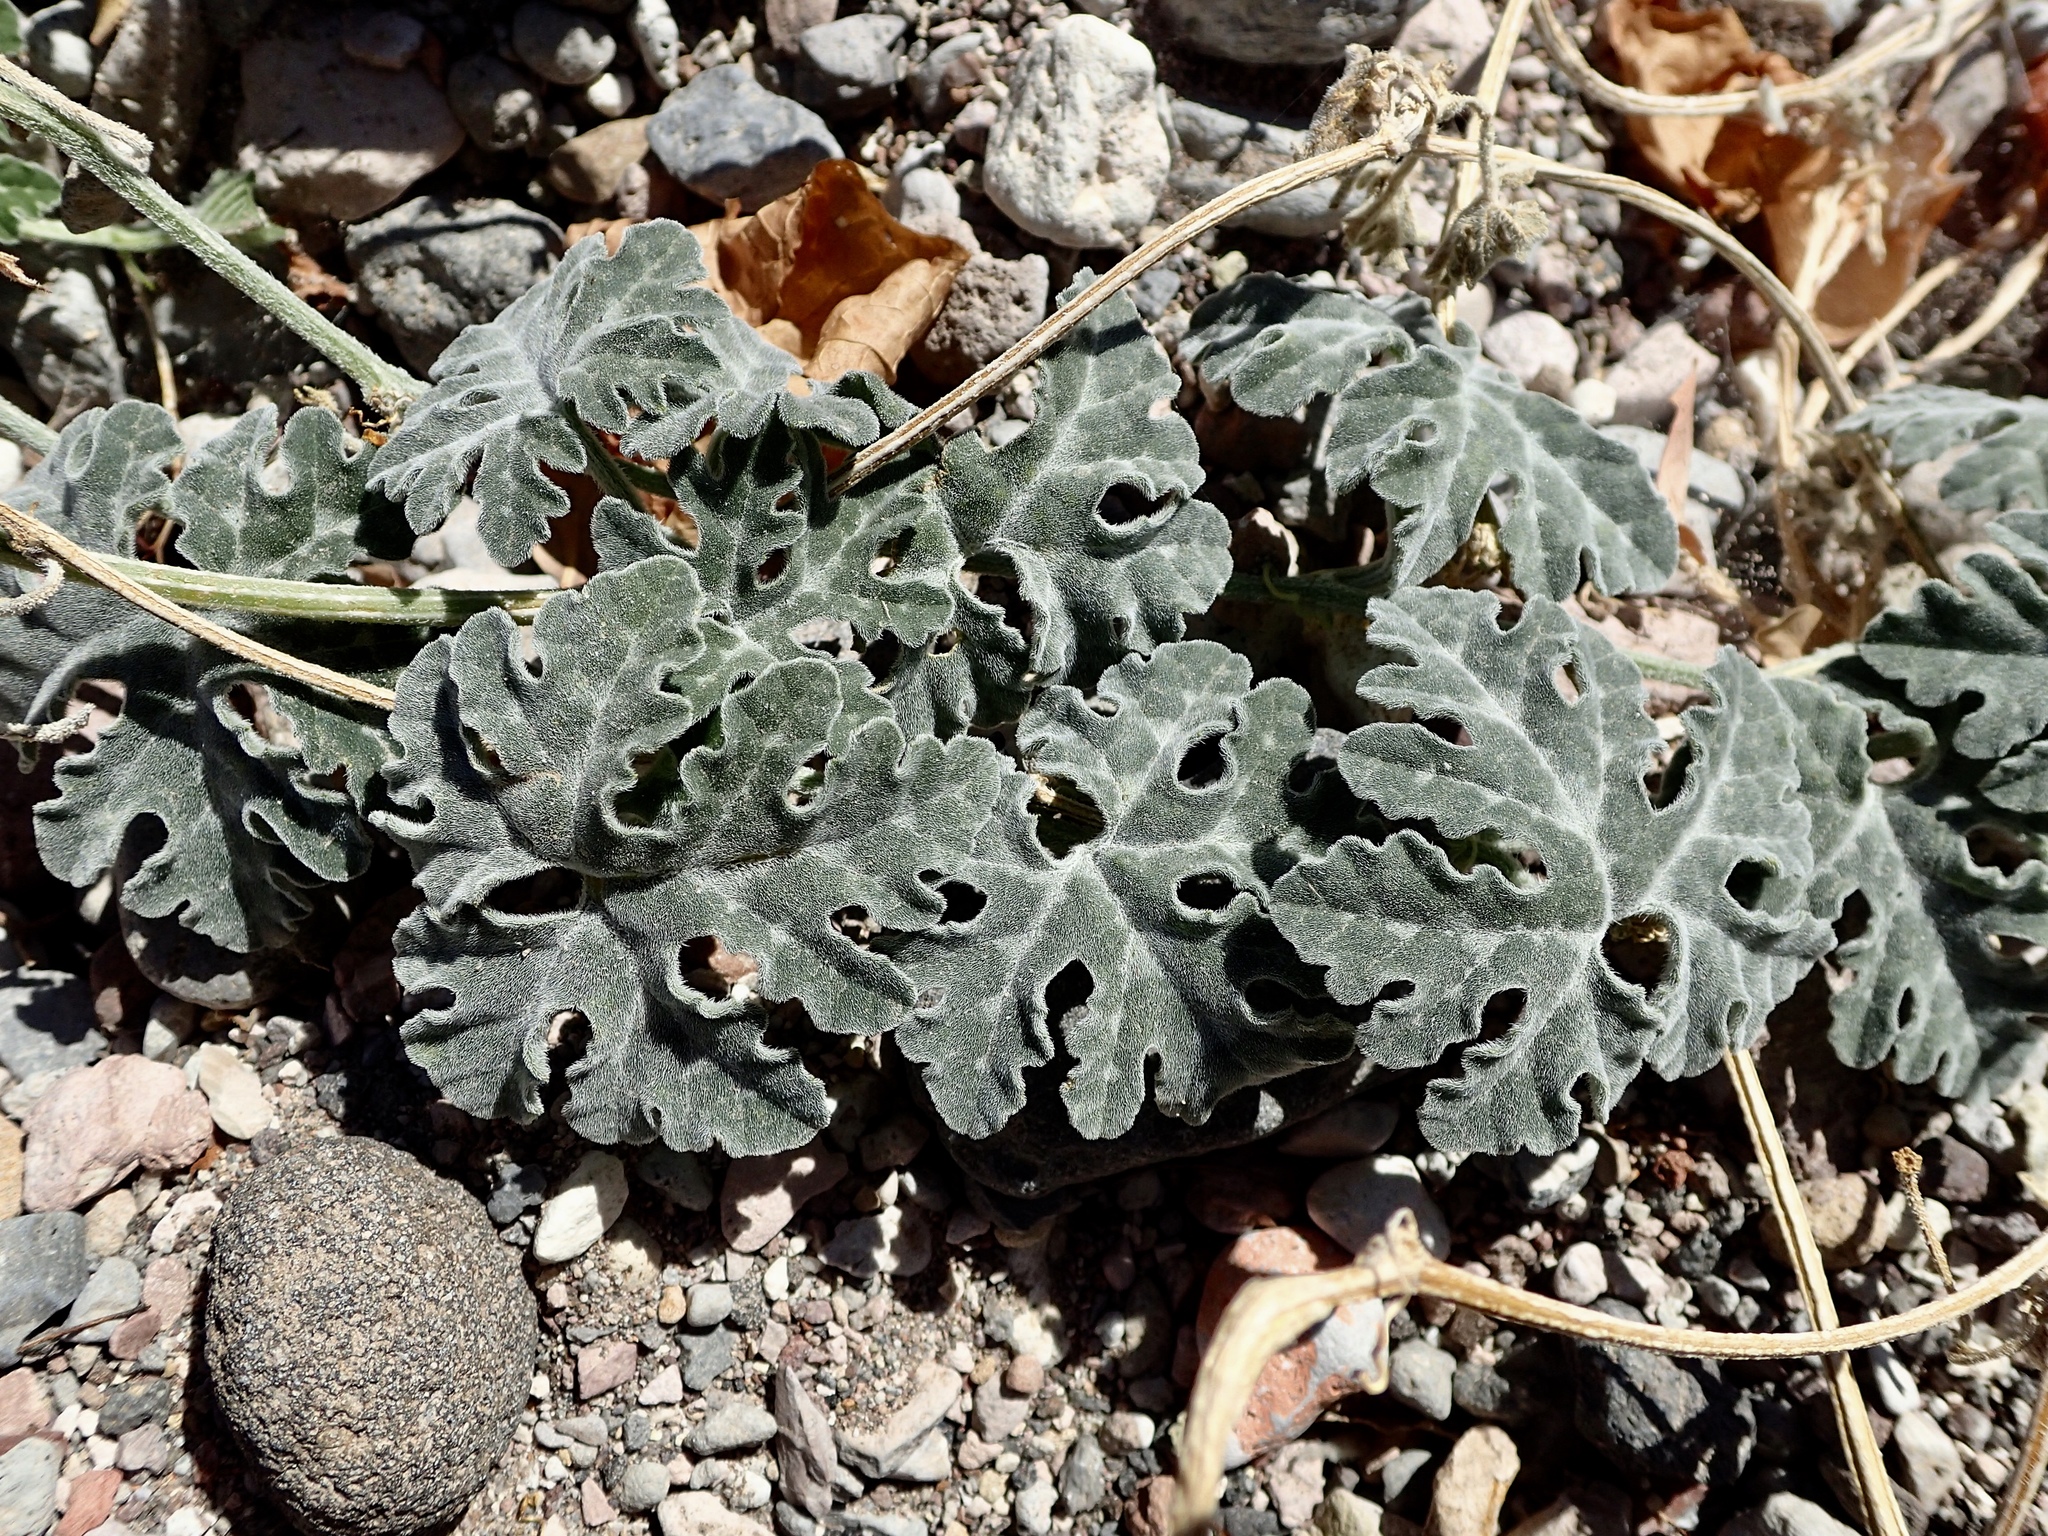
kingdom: Plantae
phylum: Tracheophyta
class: Magnoliopsida
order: Cucurbitales
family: Cucurbitaceae
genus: Cucurbita
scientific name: Cucurbita cordata
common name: Coyote gourd
